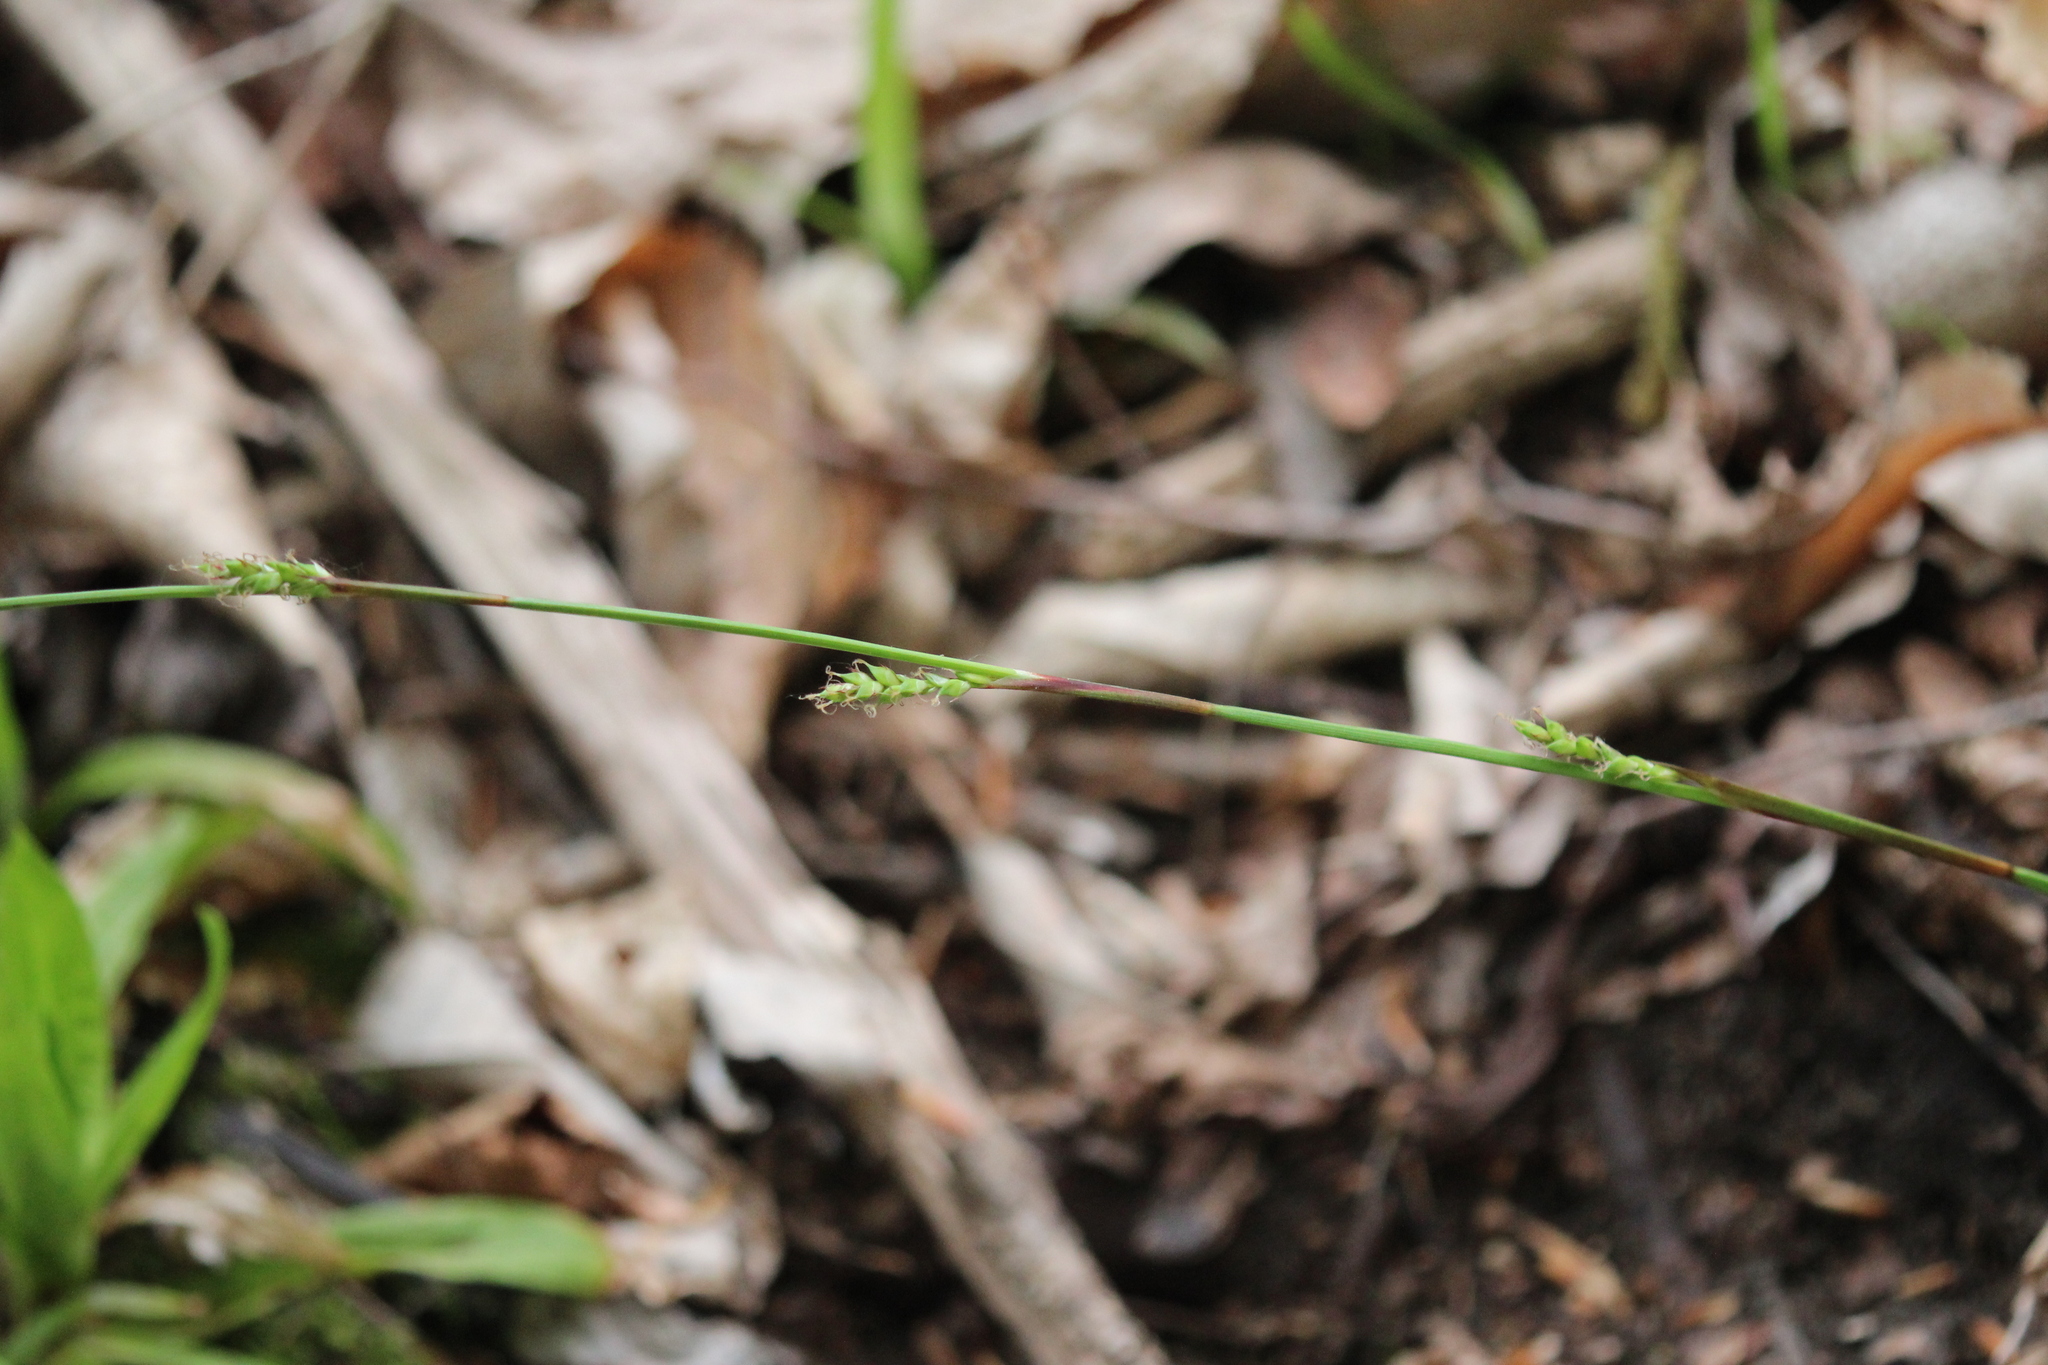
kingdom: Plantae
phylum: Tracheophyta
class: Liliopsida
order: Poales
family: Cyperaceae
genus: Carex
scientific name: Carex platyphylla
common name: Broad-leaved sedge
